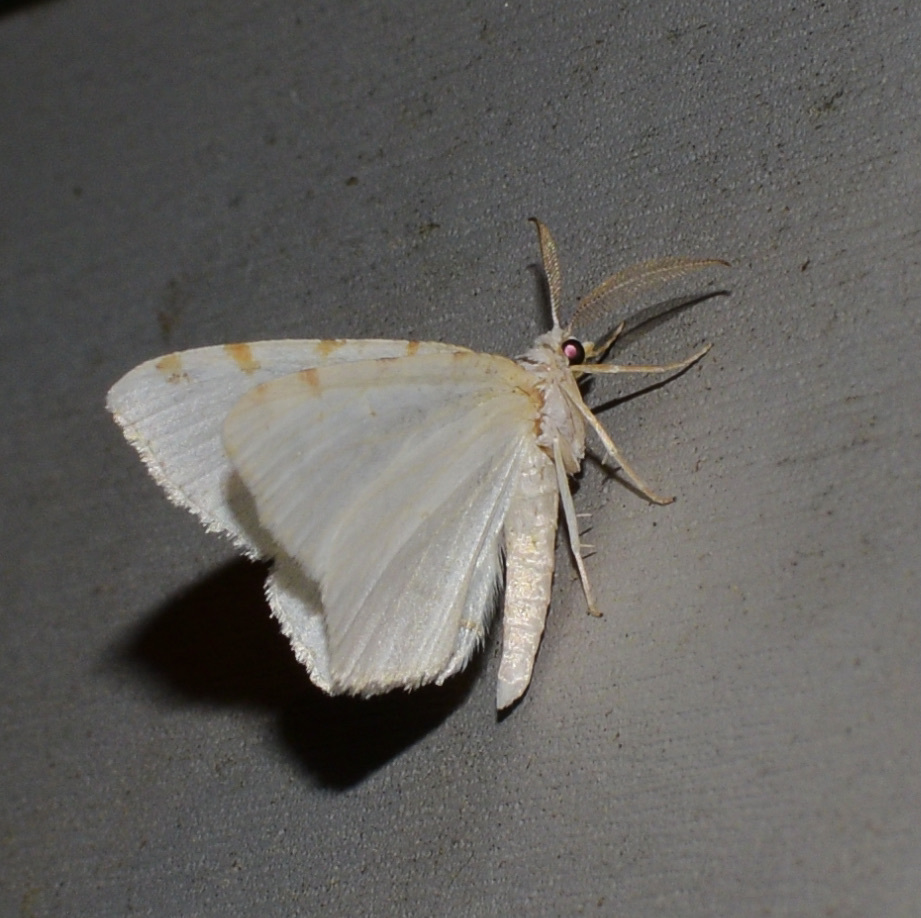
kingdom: Animalia
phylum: Arthropoda
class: Insecta
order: Lepidoptera
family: Geometridae
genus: Macaria
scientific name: Macaria pustularia
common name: Lesser maple spanworm moth
